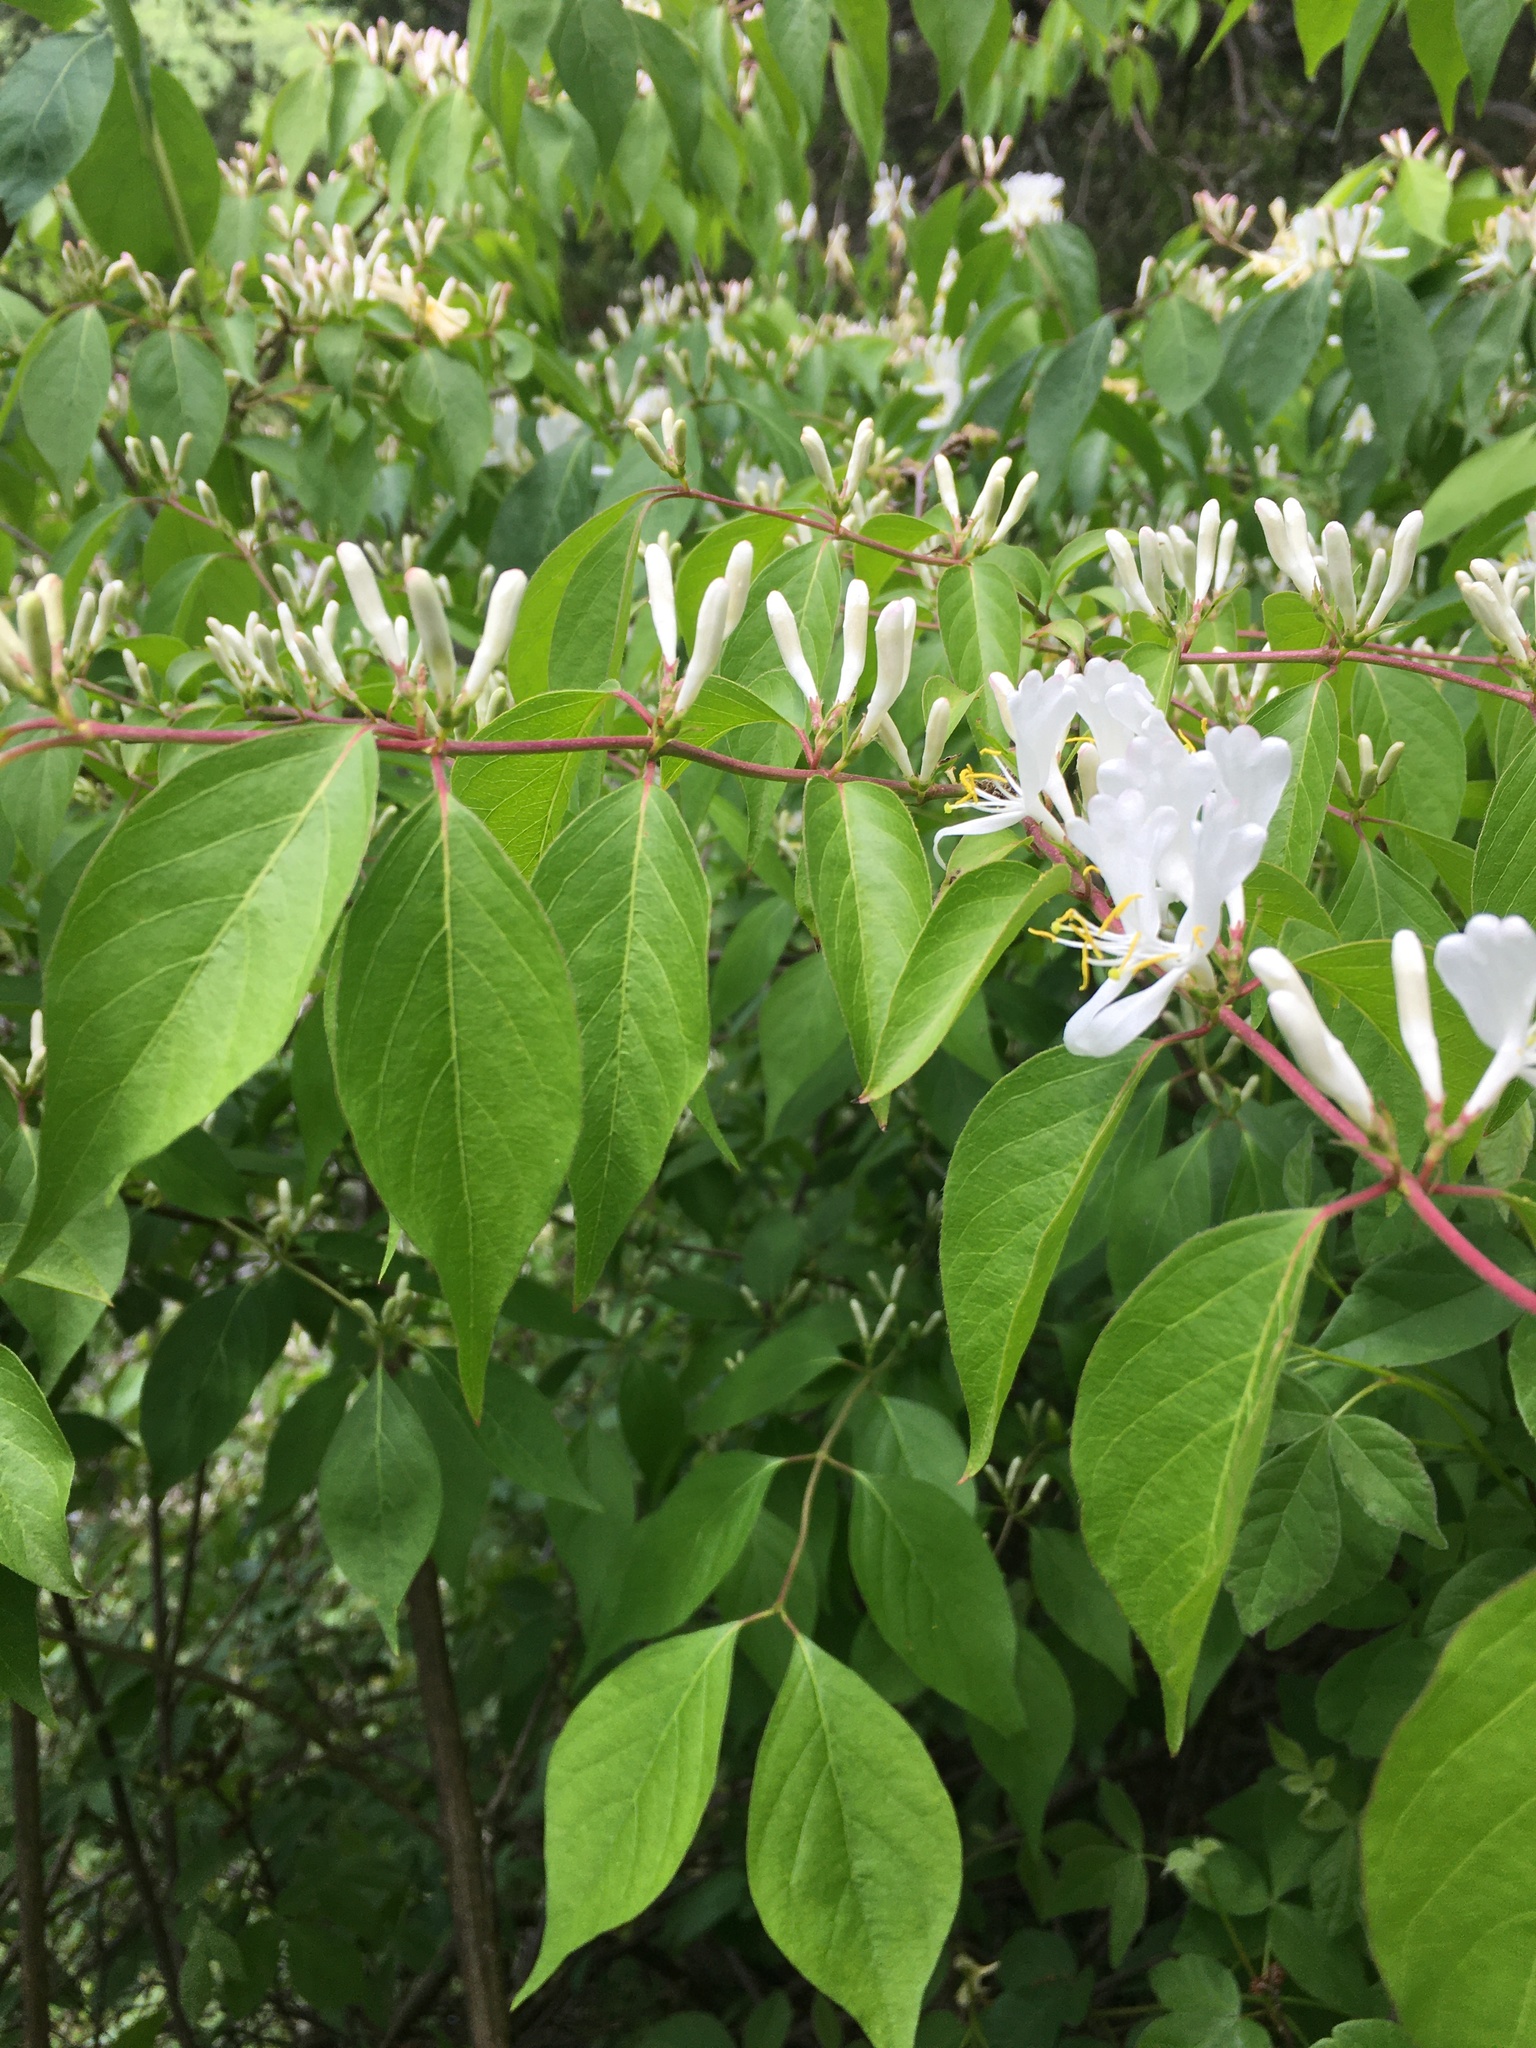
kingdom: Plantae
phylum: Tracheophyta
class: Magnoliopsida
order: Dipsacales
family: Caprifoliaceae
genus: Lonicera
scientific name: Lonicera maackii
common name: Amur honeysuckle
